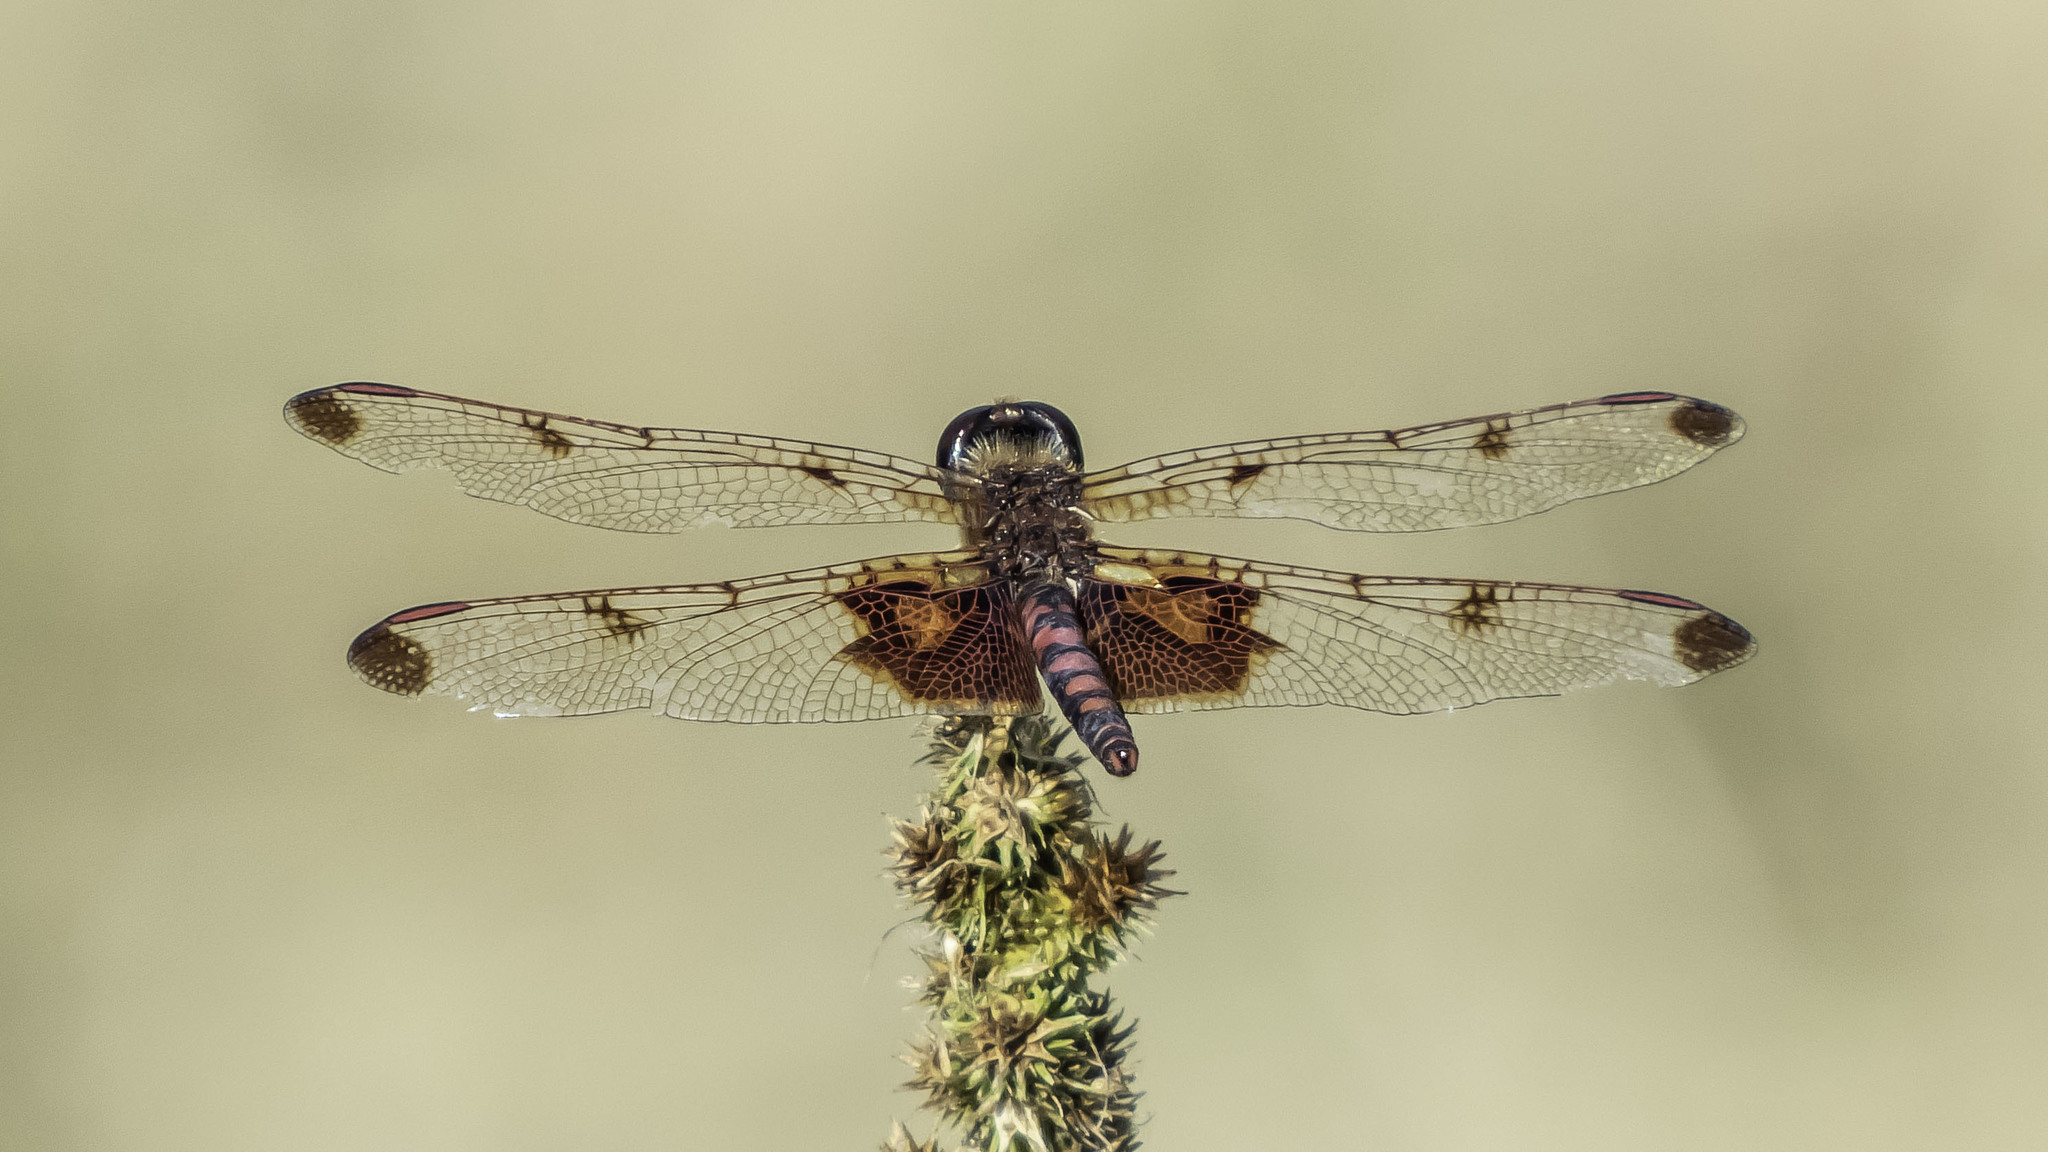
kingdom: Animalia
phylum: Arthropoda
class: Insecta
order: Odonata
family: Libellulidae
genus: Celithemis
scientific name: Celithemis elisa
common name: Calico pennant
